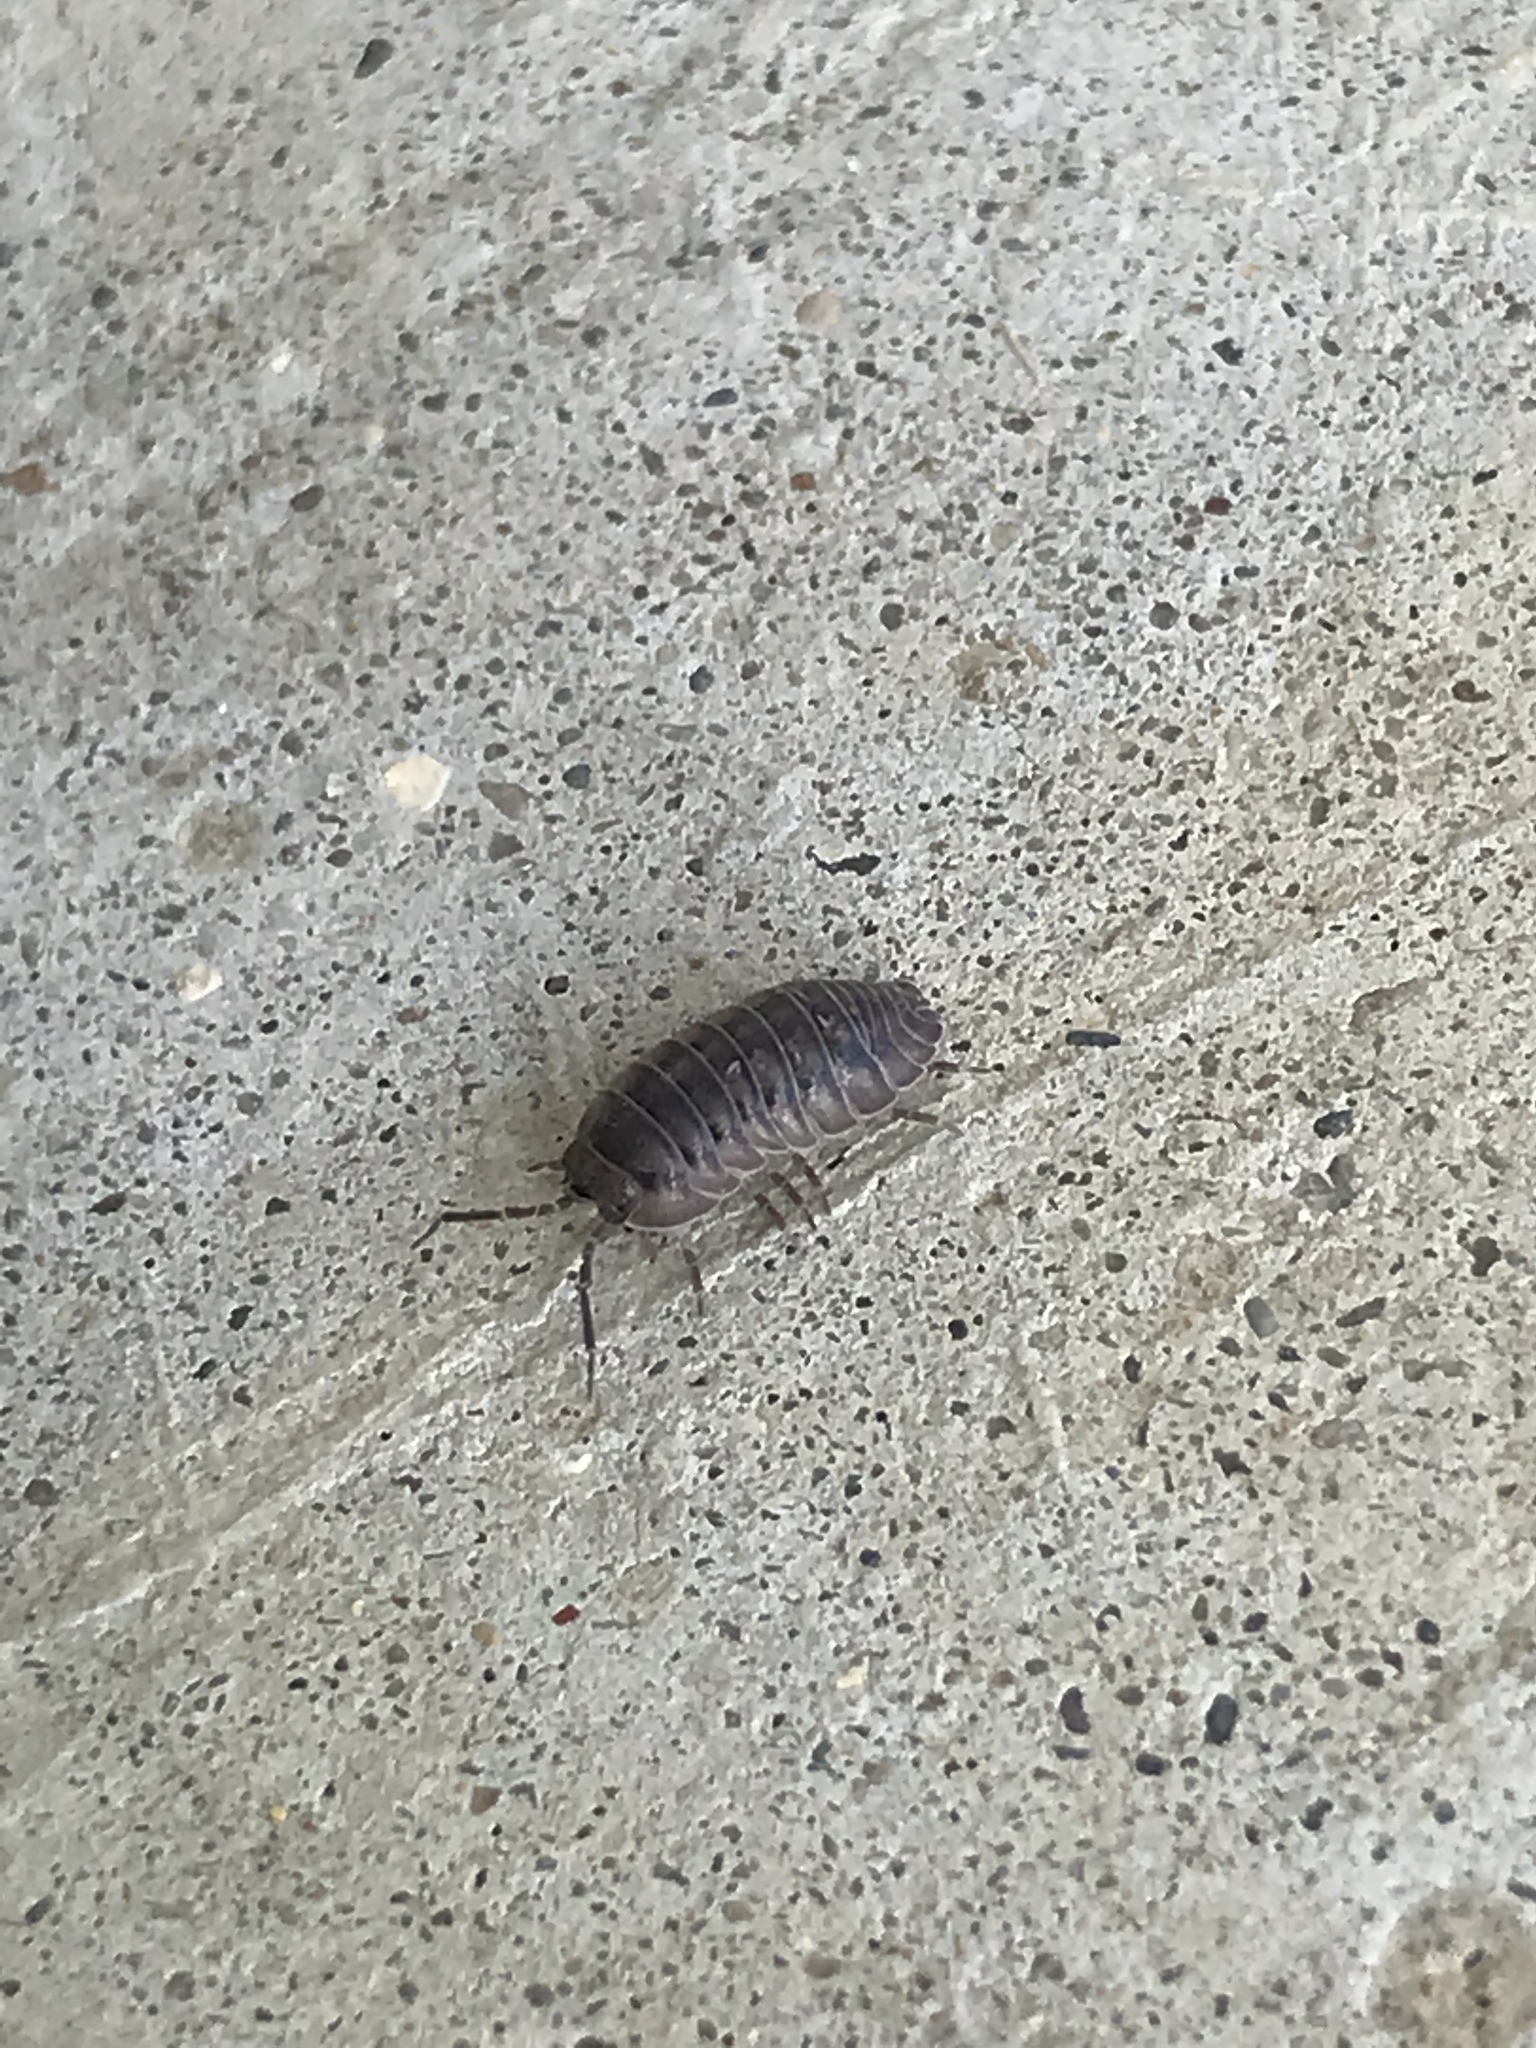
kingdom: Animalia
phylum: Arthropoda
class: Malacostraca
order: Isopoda
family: Armadillidiidae
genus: Armadillidium
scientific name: Armadillidium nasatum
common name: Isopod
